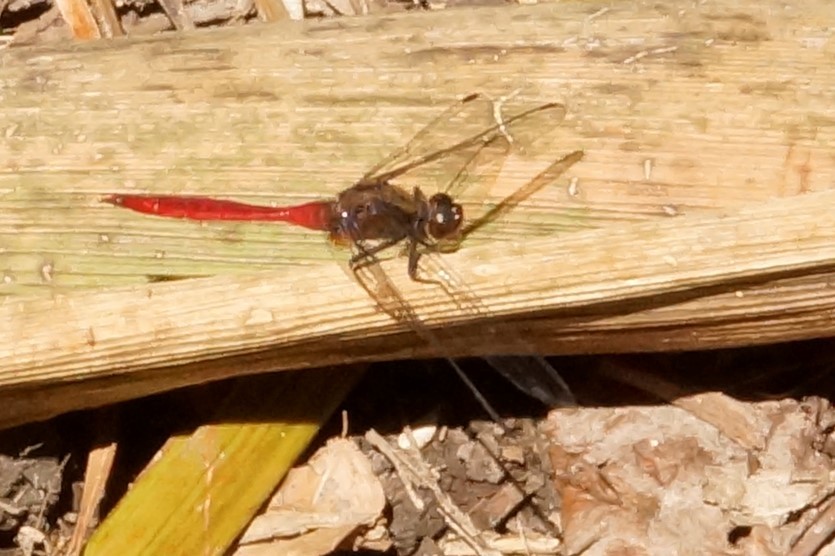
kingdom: Animalia
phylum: Arthropoda
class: Insecta
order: Odonata
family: Libellulidae
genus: Orthetrum
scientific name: Orthetrum villosovittatum
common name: Firery skimmer
